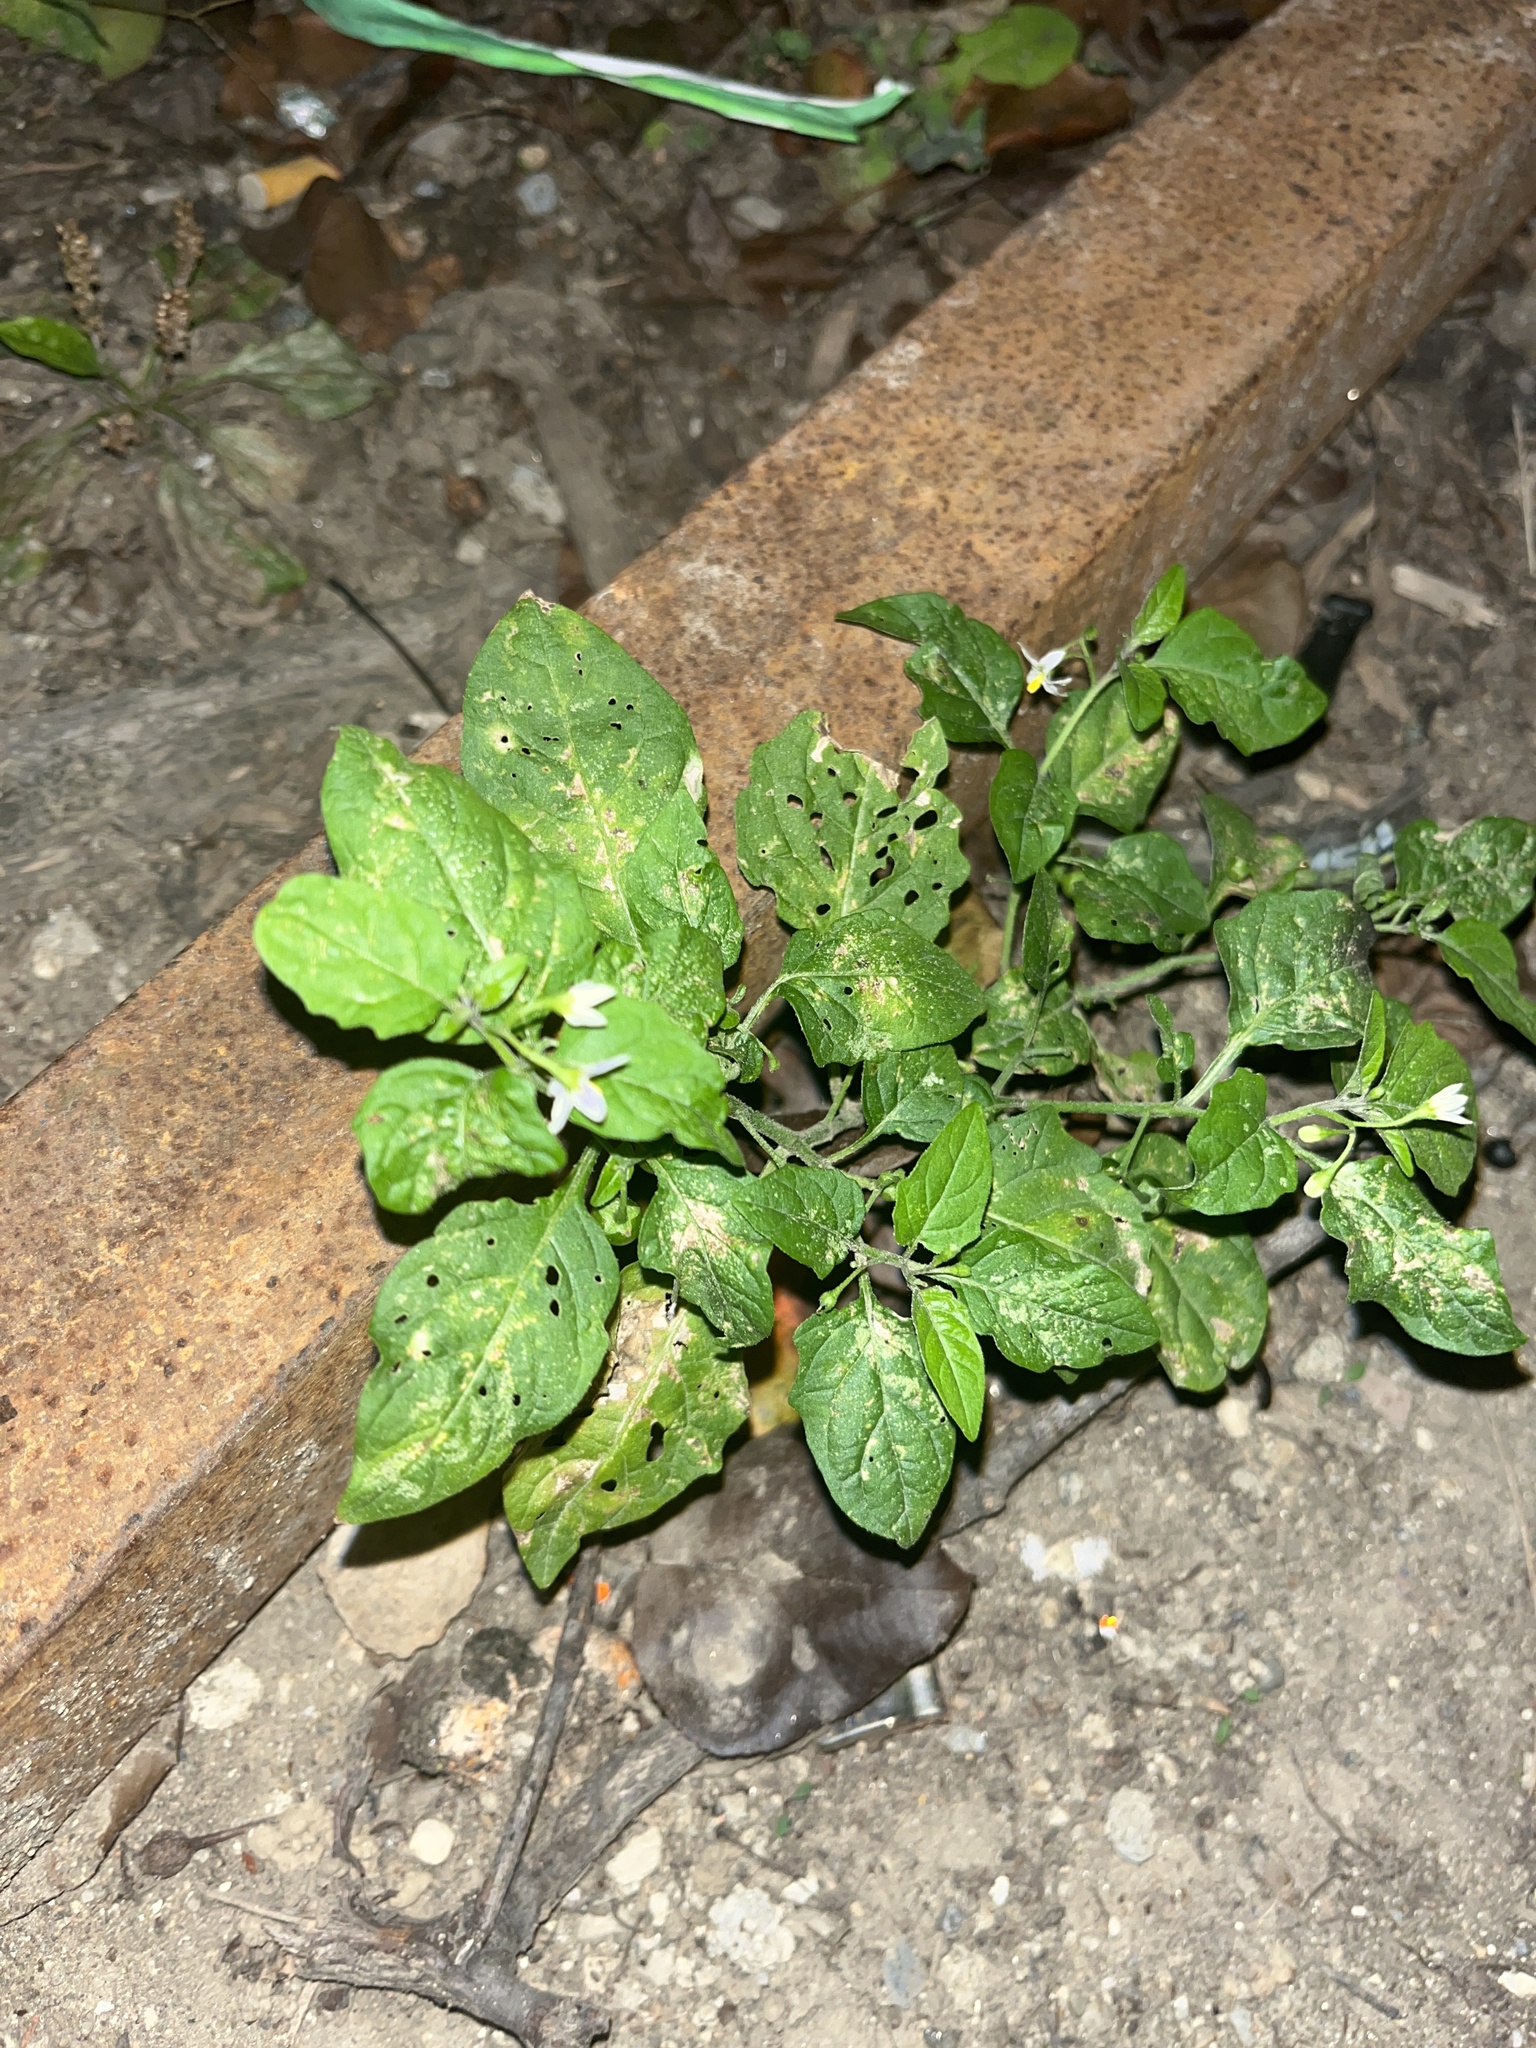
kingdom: Plantae
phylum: Tracheophyta
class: Magnoliopsida
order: Solanales
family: Solanaceae
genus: Solanum
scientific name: Solanum emulans
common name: Eastern black nightshade
